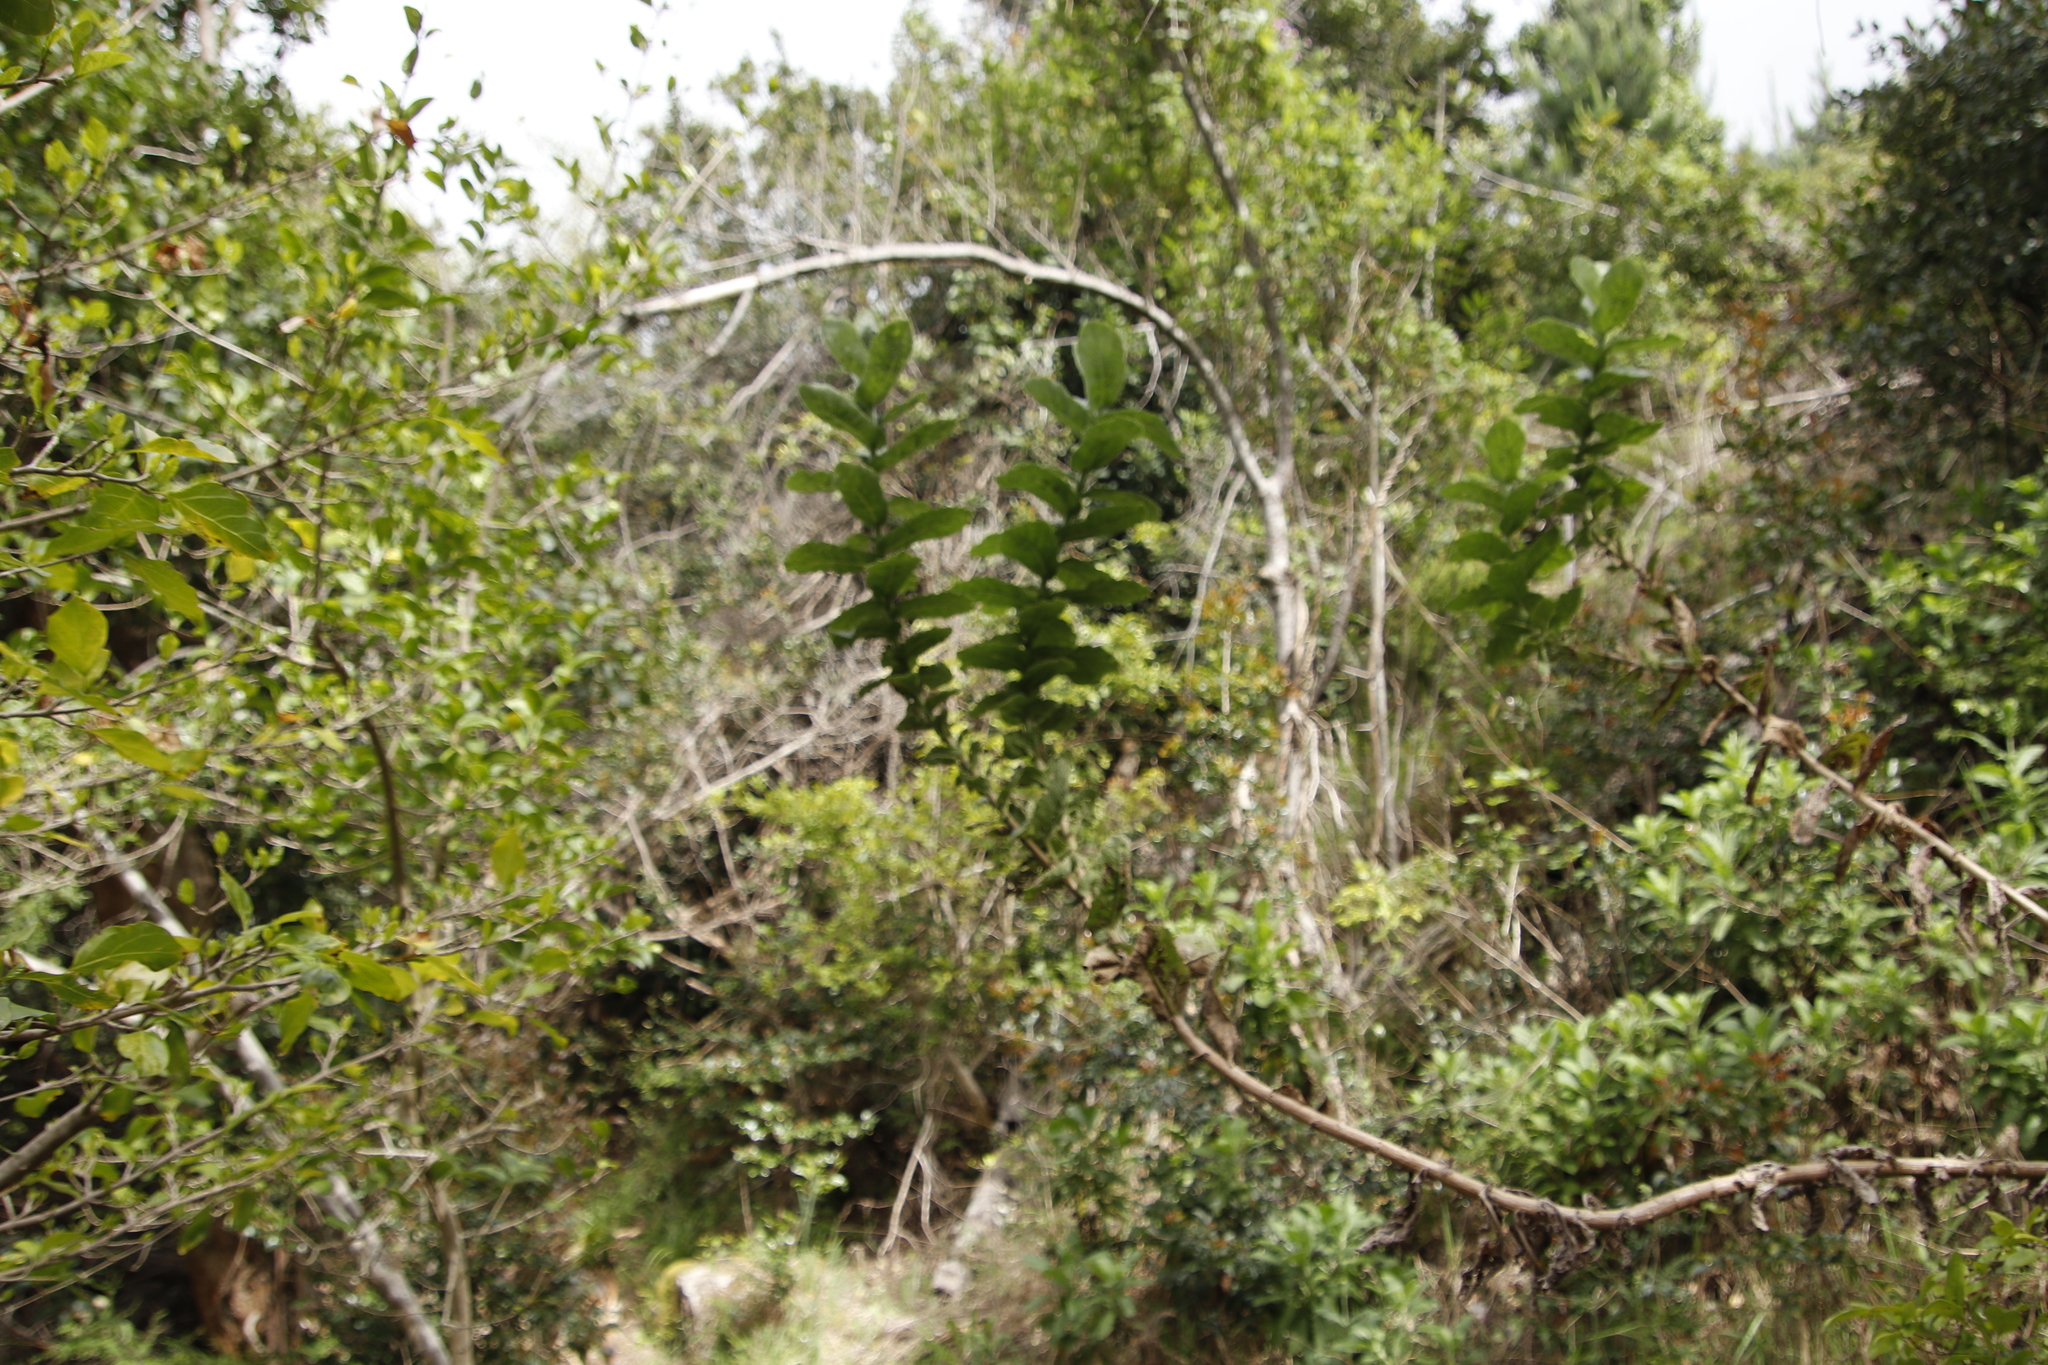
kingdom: Plantae
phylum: Tracheophyta
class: Magnoliopsida
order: Asterales
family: Asteraceae
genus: Senecio
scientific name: Senecio rigidus
